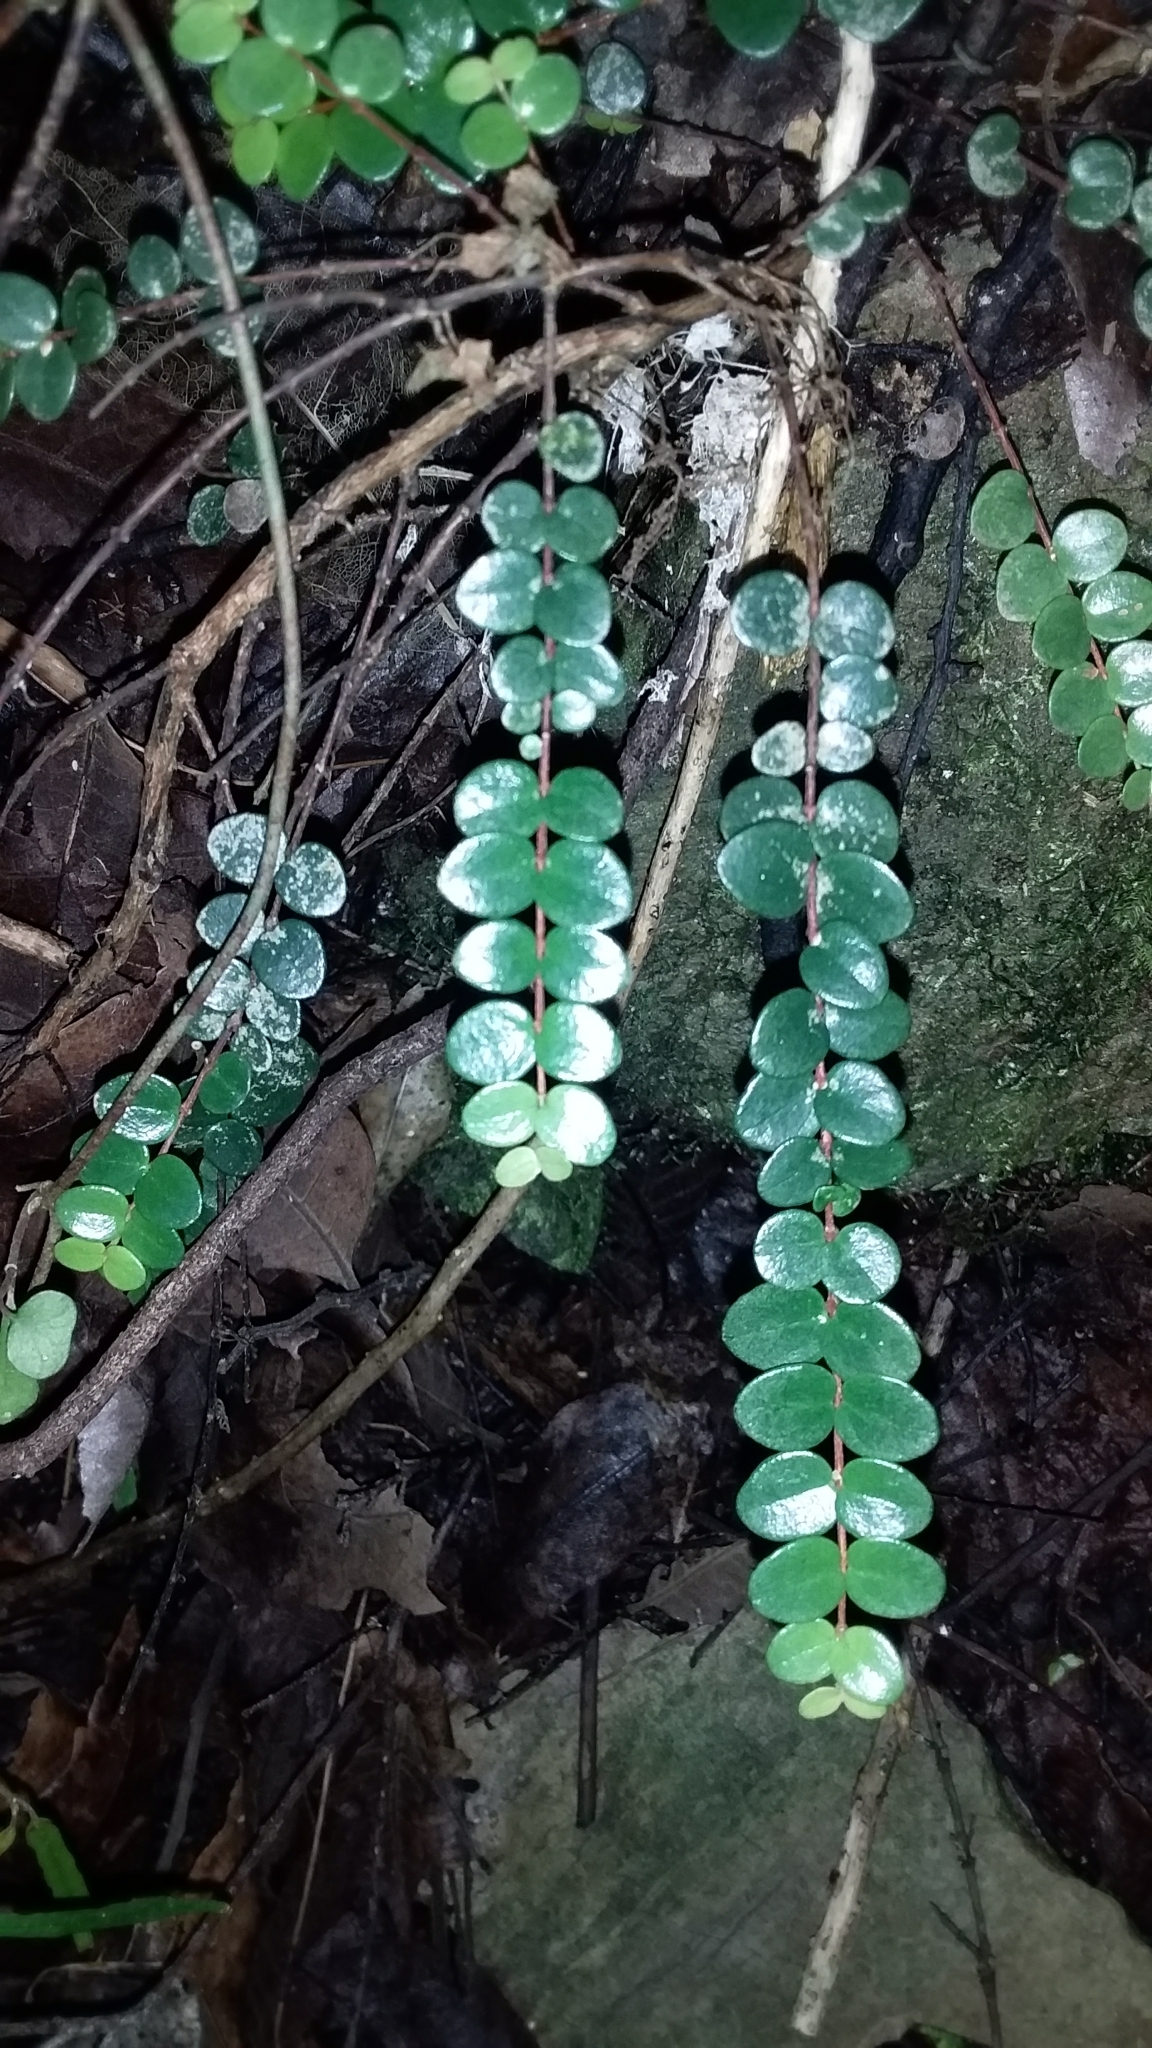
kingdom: Plantae
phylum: Tracheophyta
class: Magnoliopsida
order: Myrtales
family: Myrtaceae
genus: Metrosideros
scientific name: Metrosideros perforata
